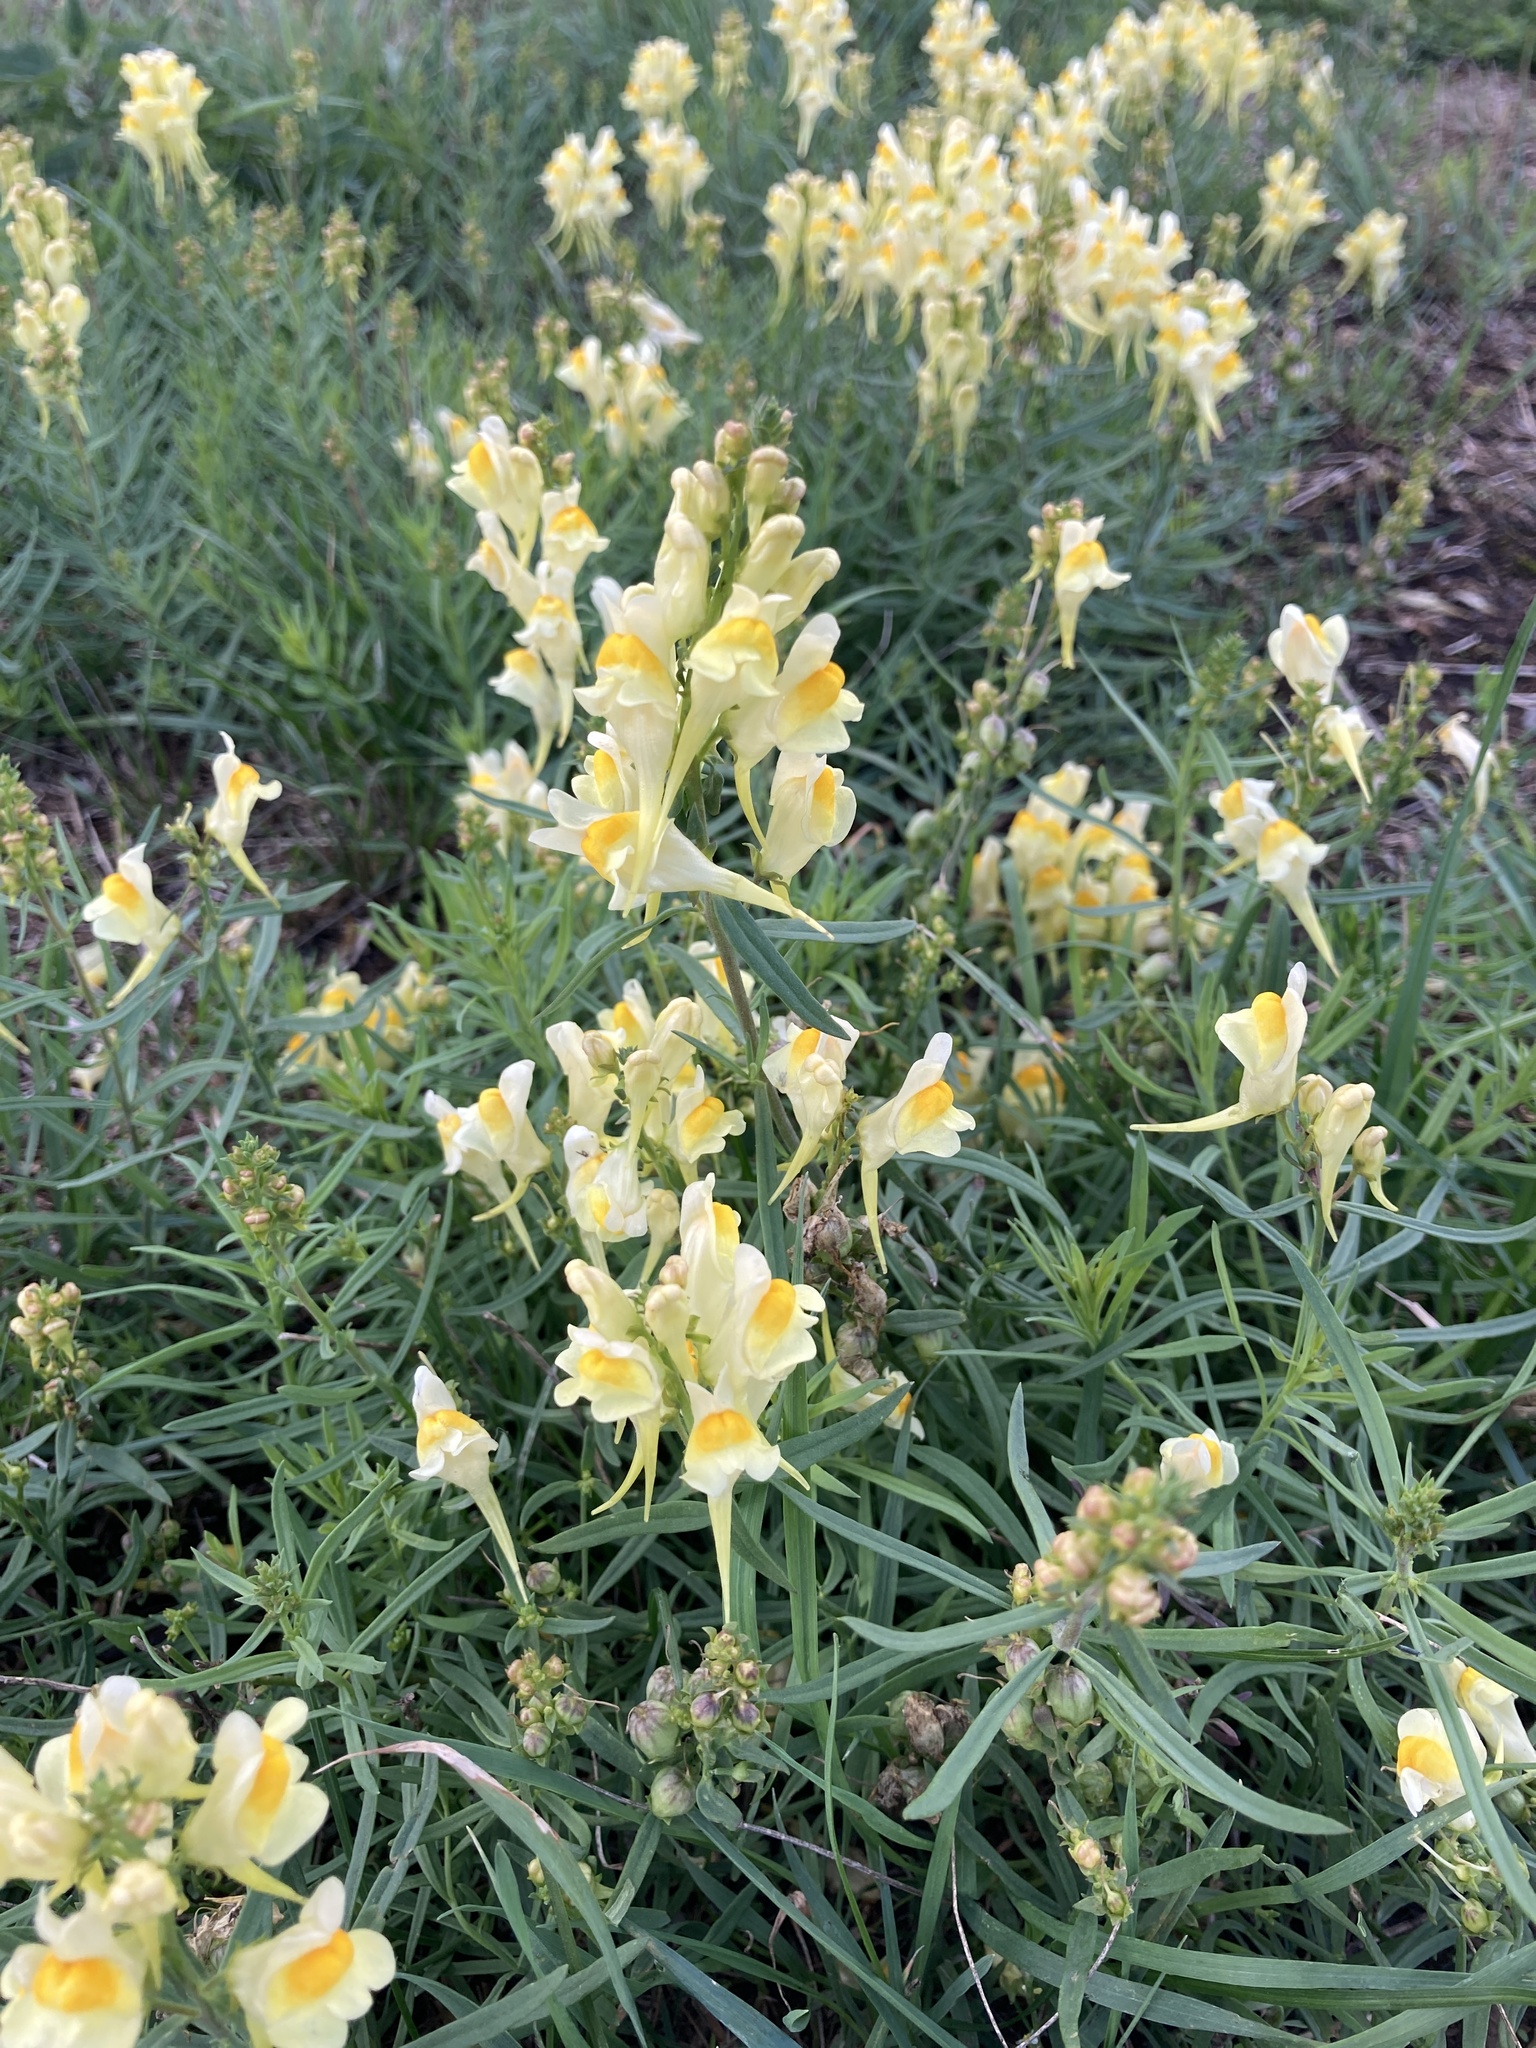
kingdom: Plantae
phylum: Tracheophyta
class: Magnoliopsida
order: Lamiales
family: Plantaginaceae
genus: Linaria
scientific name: Linaria vulgaris
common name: Butter and eggs
